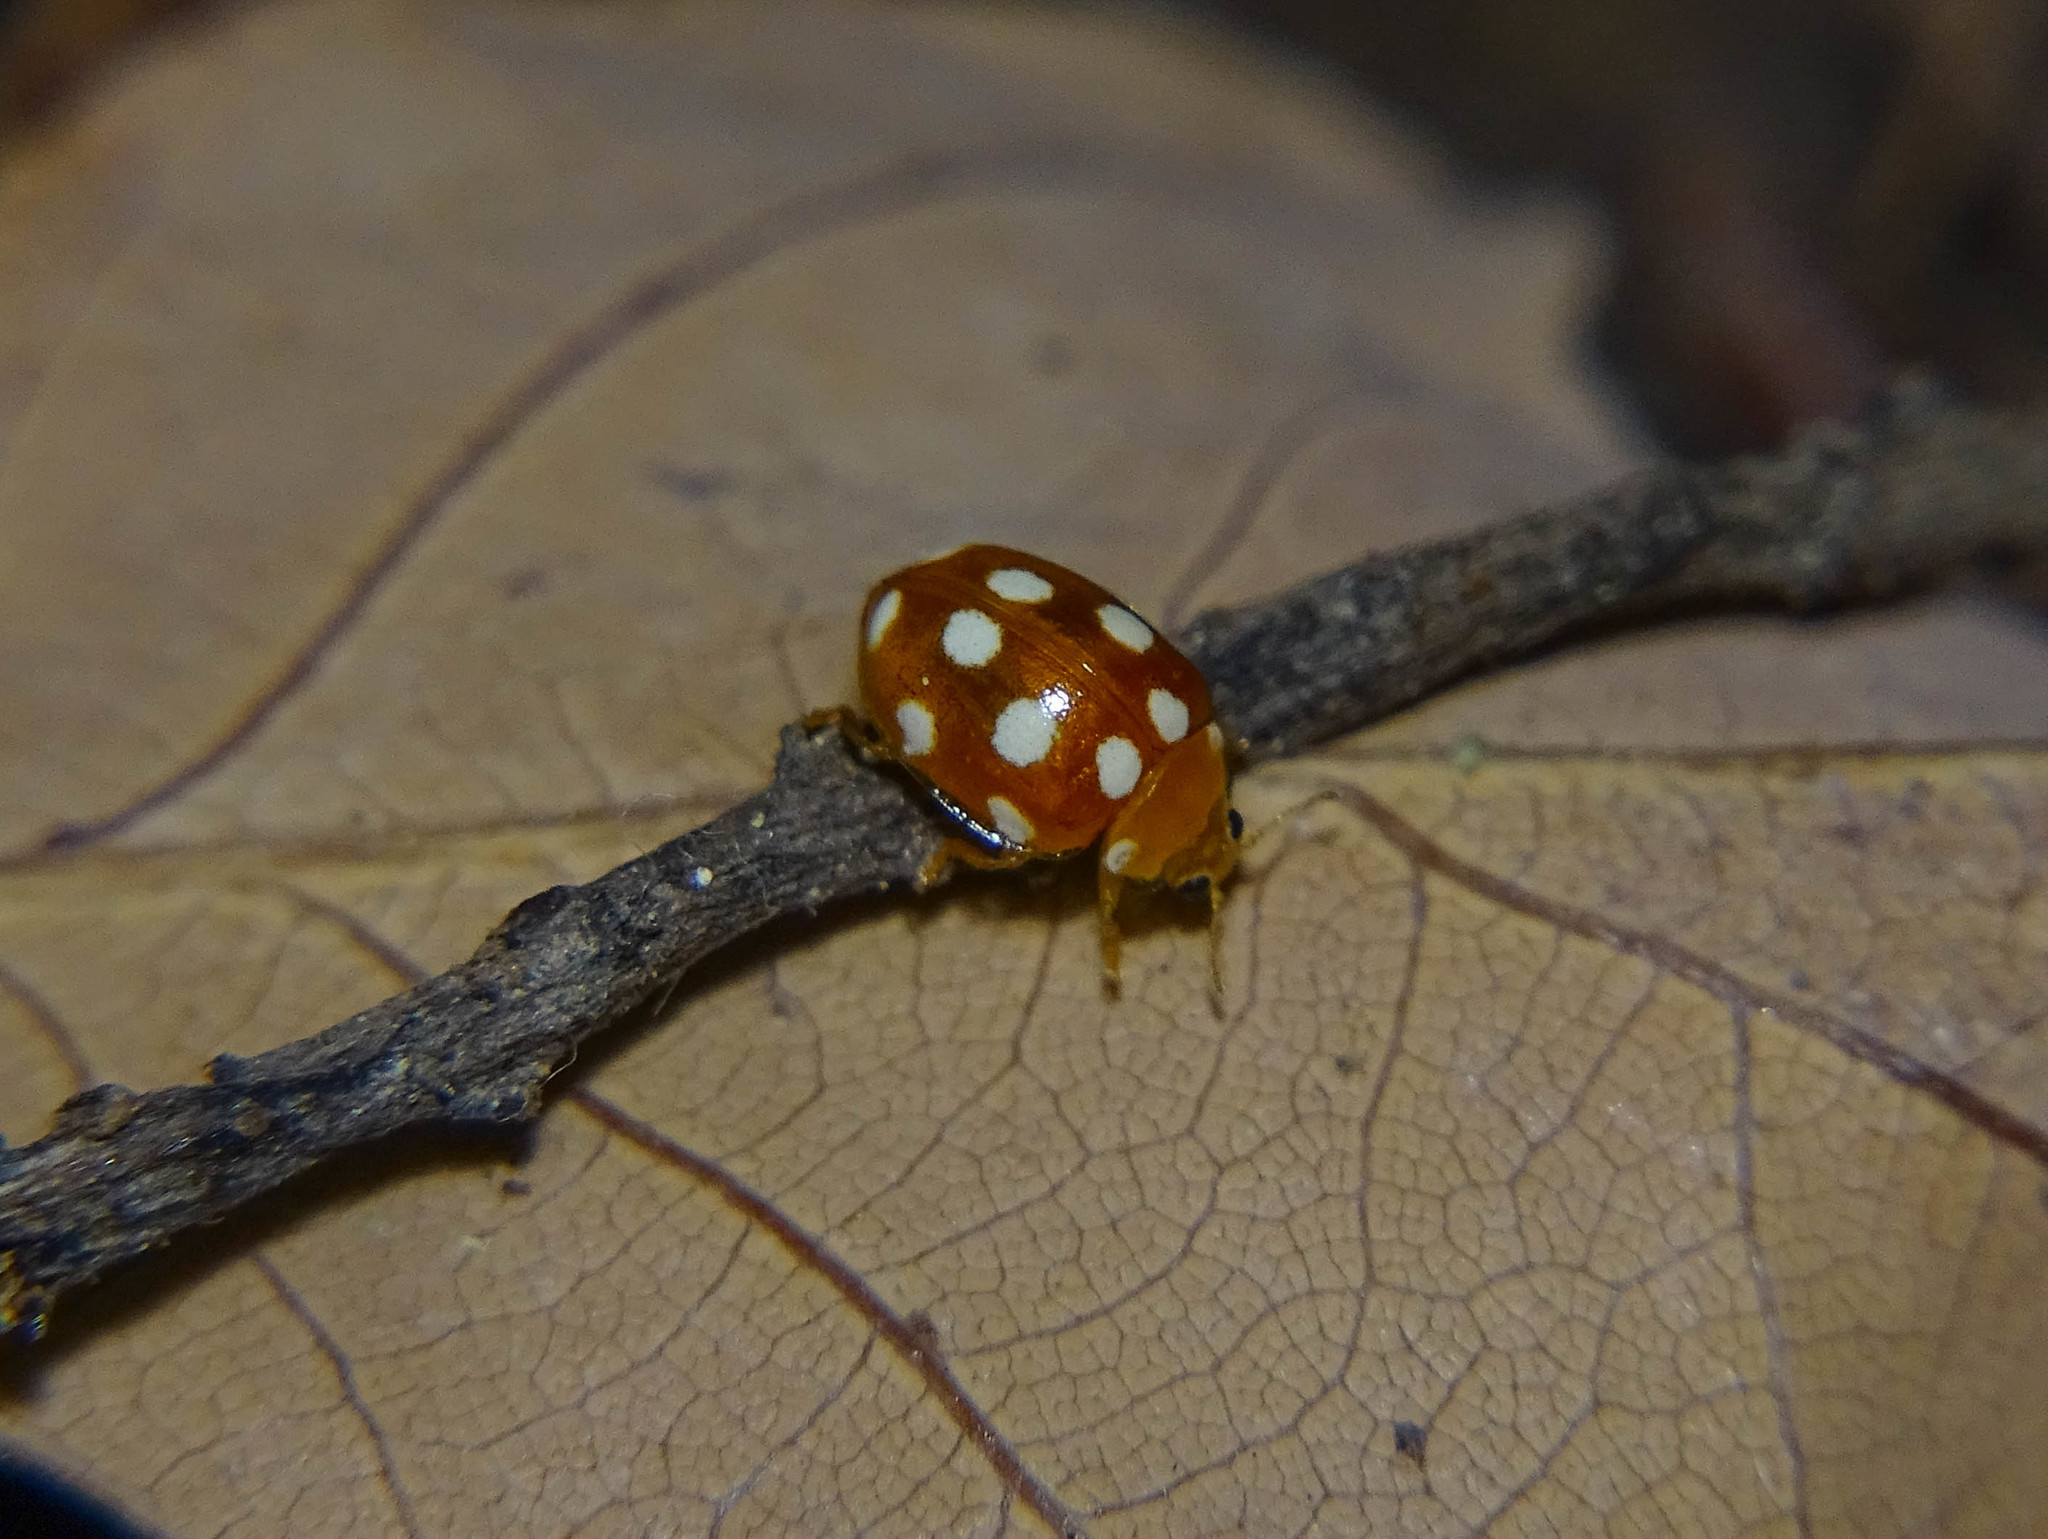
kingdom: Animalia
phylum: Arthropoda
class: Insecta
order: Coleoptera
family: Coccinellidae
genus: Vibidia
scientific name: Vibidia duodecimguttata
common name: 12-spot ladybird
